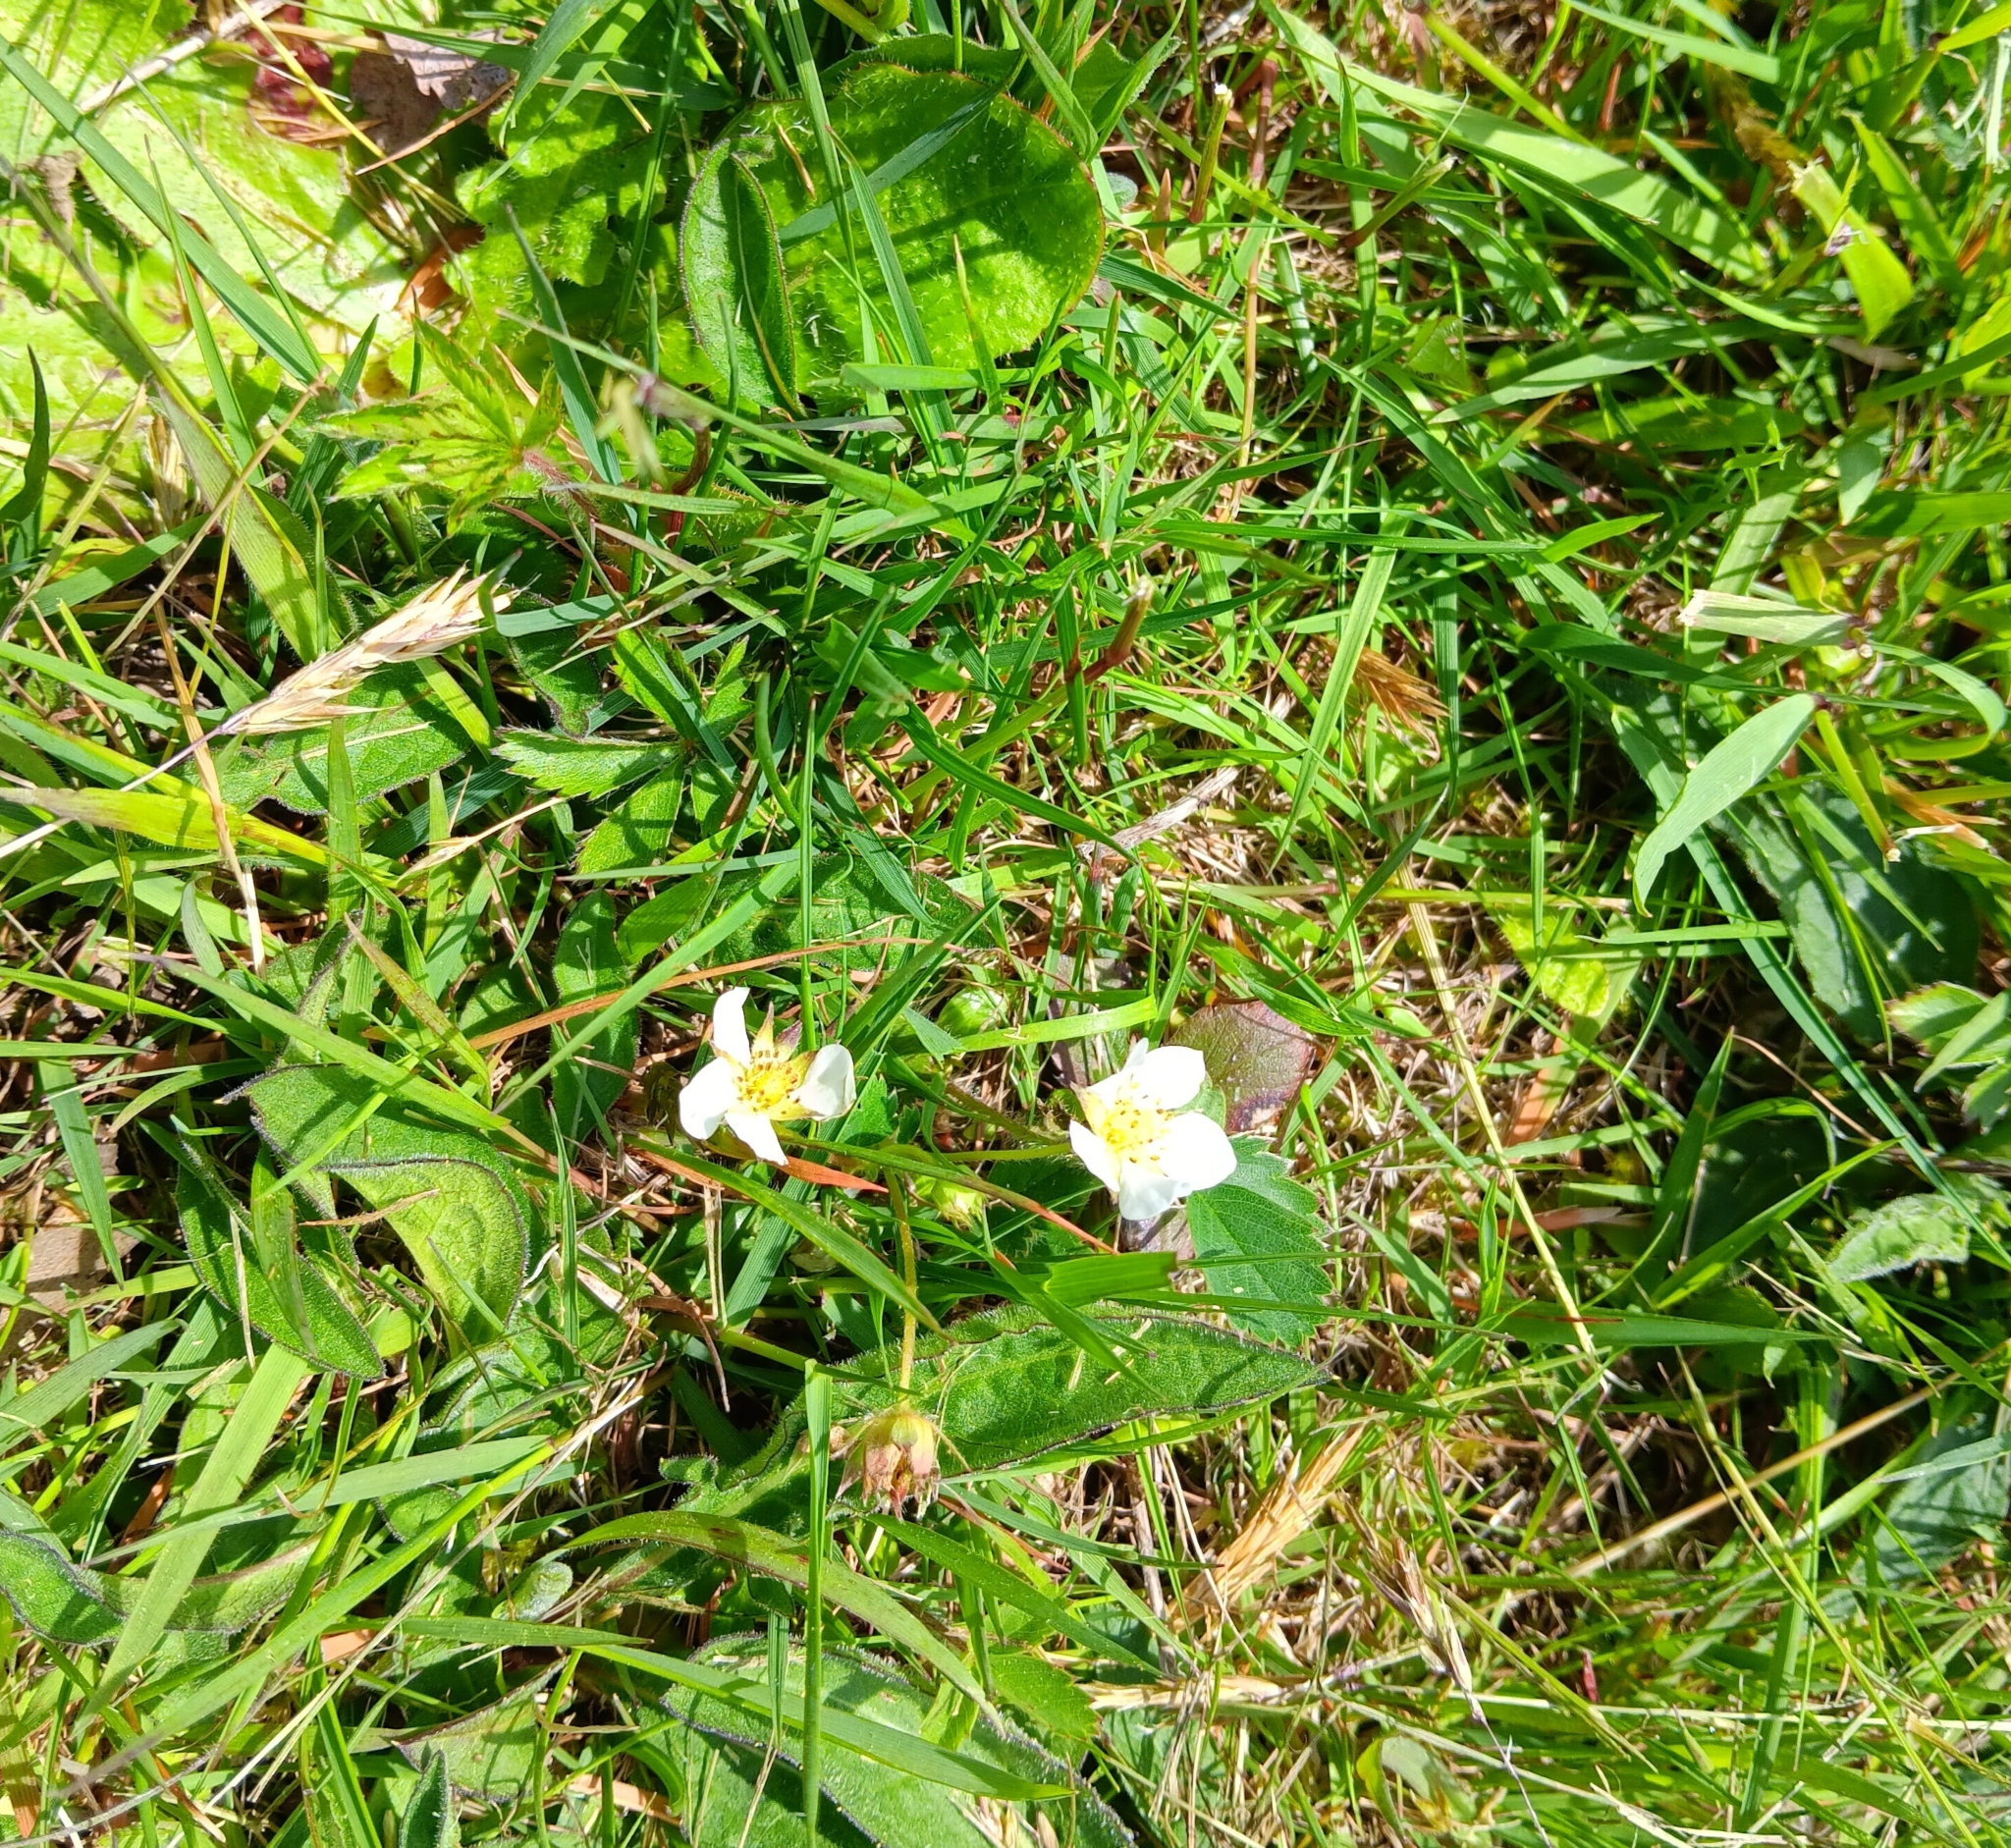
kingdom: Plantae
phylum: Tracheophyta
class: Magnoliopsida
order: Rosales
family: Rosaceae
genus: Fragaria
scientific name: Fragaria virginiana
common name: Thickleaved wild strawberry
